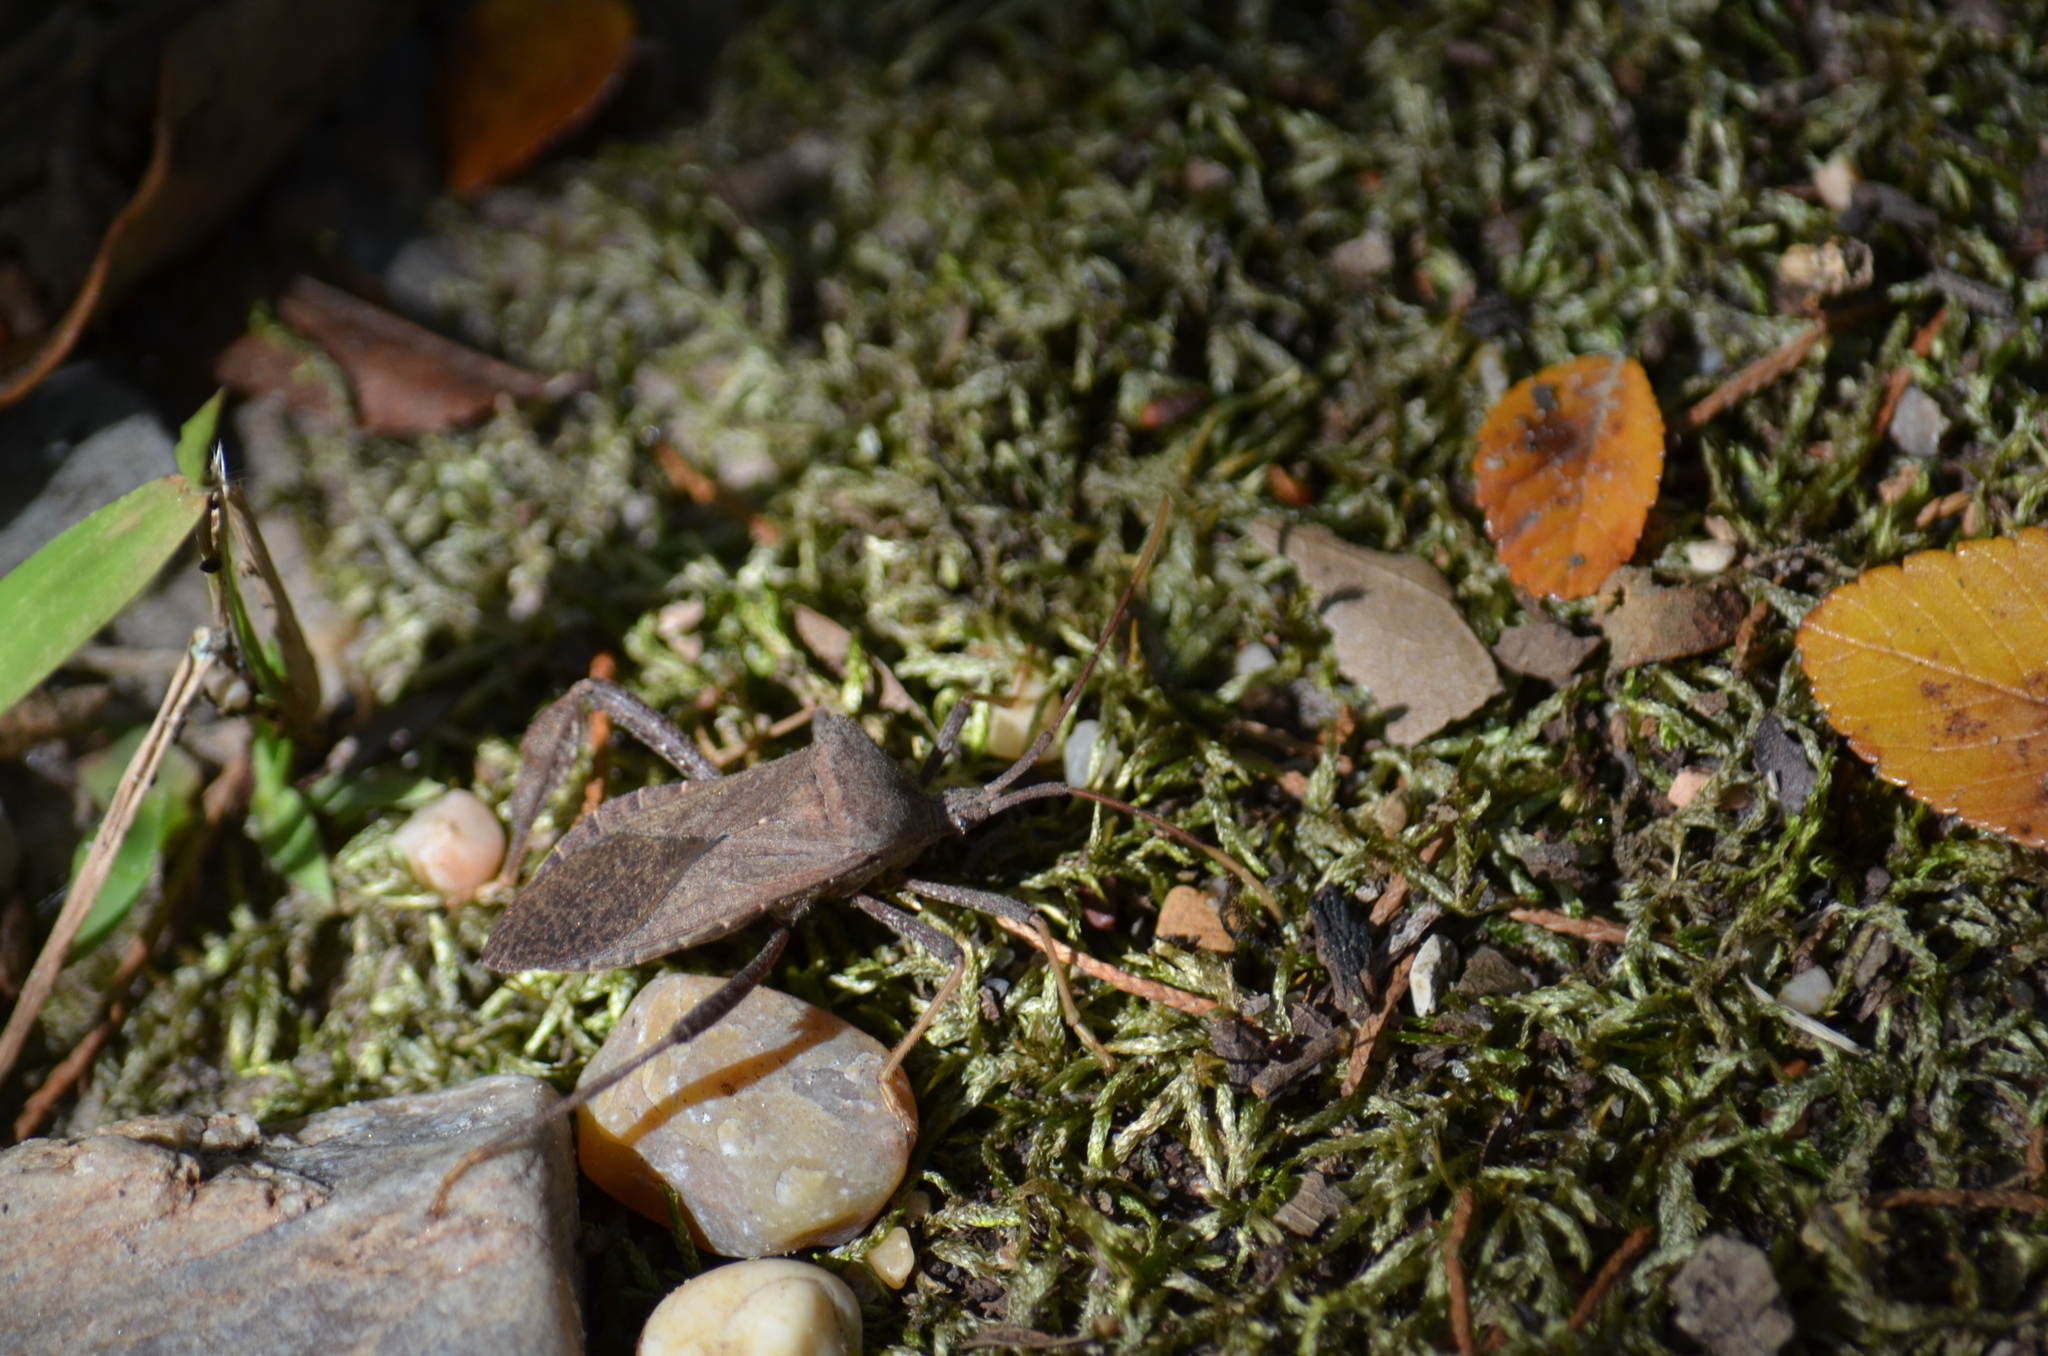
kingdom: Animalia
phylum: Arthropoda
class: Insecta
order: Hemiptera
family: Coreidae
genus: Acanthocephala
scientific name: Acanthocephala terminalis
